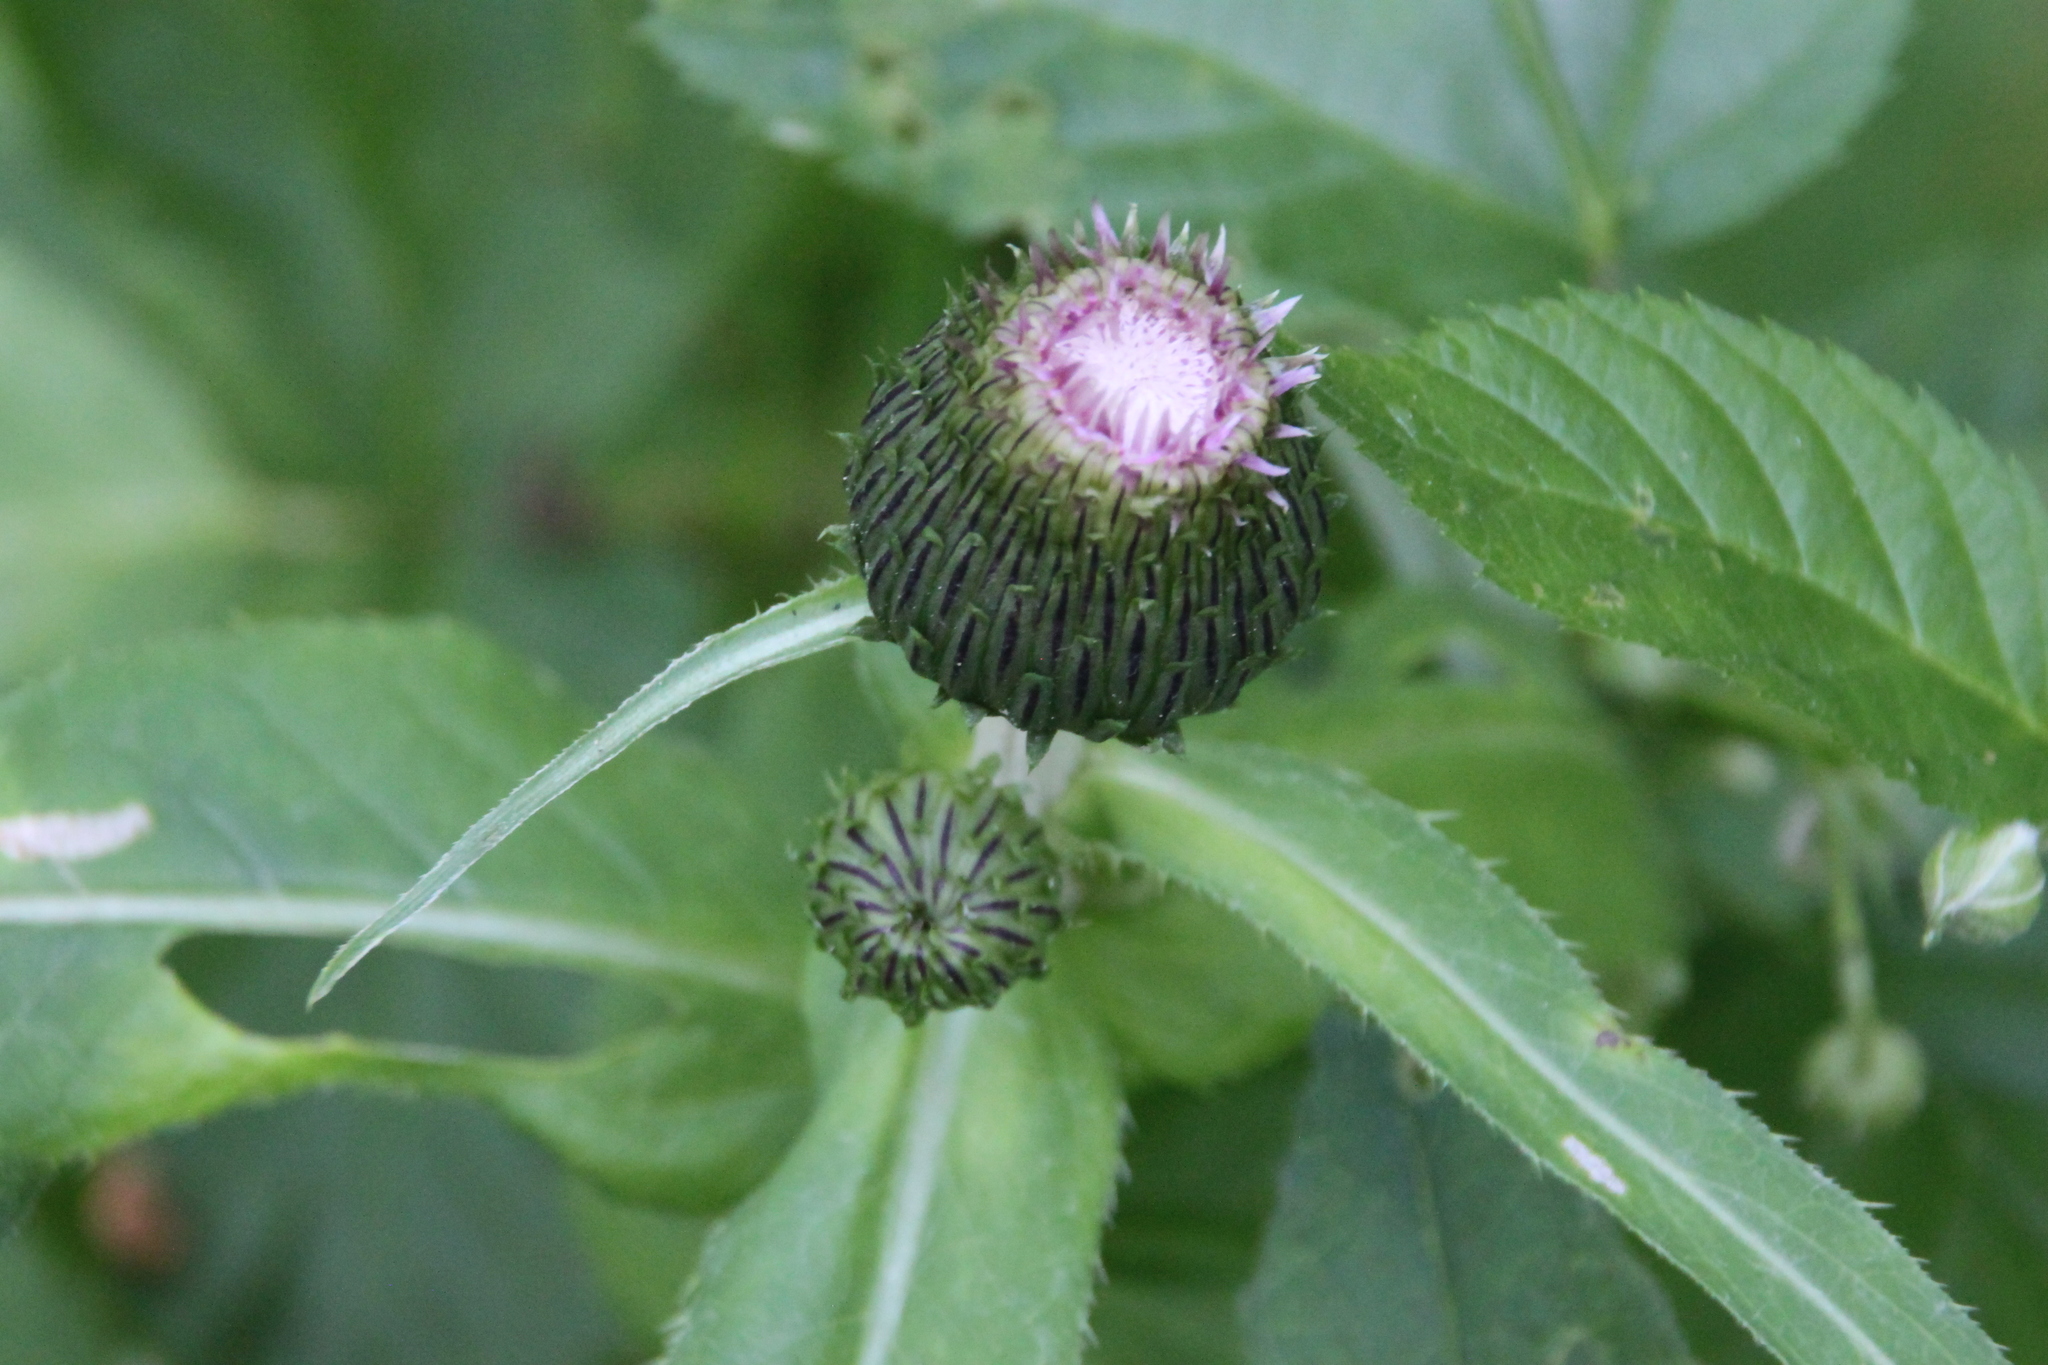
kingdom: Plantae
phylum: Tracheophyta
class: Magnoliopsida
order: Asterales
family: Asteraceae
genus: Cirsium
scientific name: Cirsium heterophyllum
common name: Melancholy thistle
